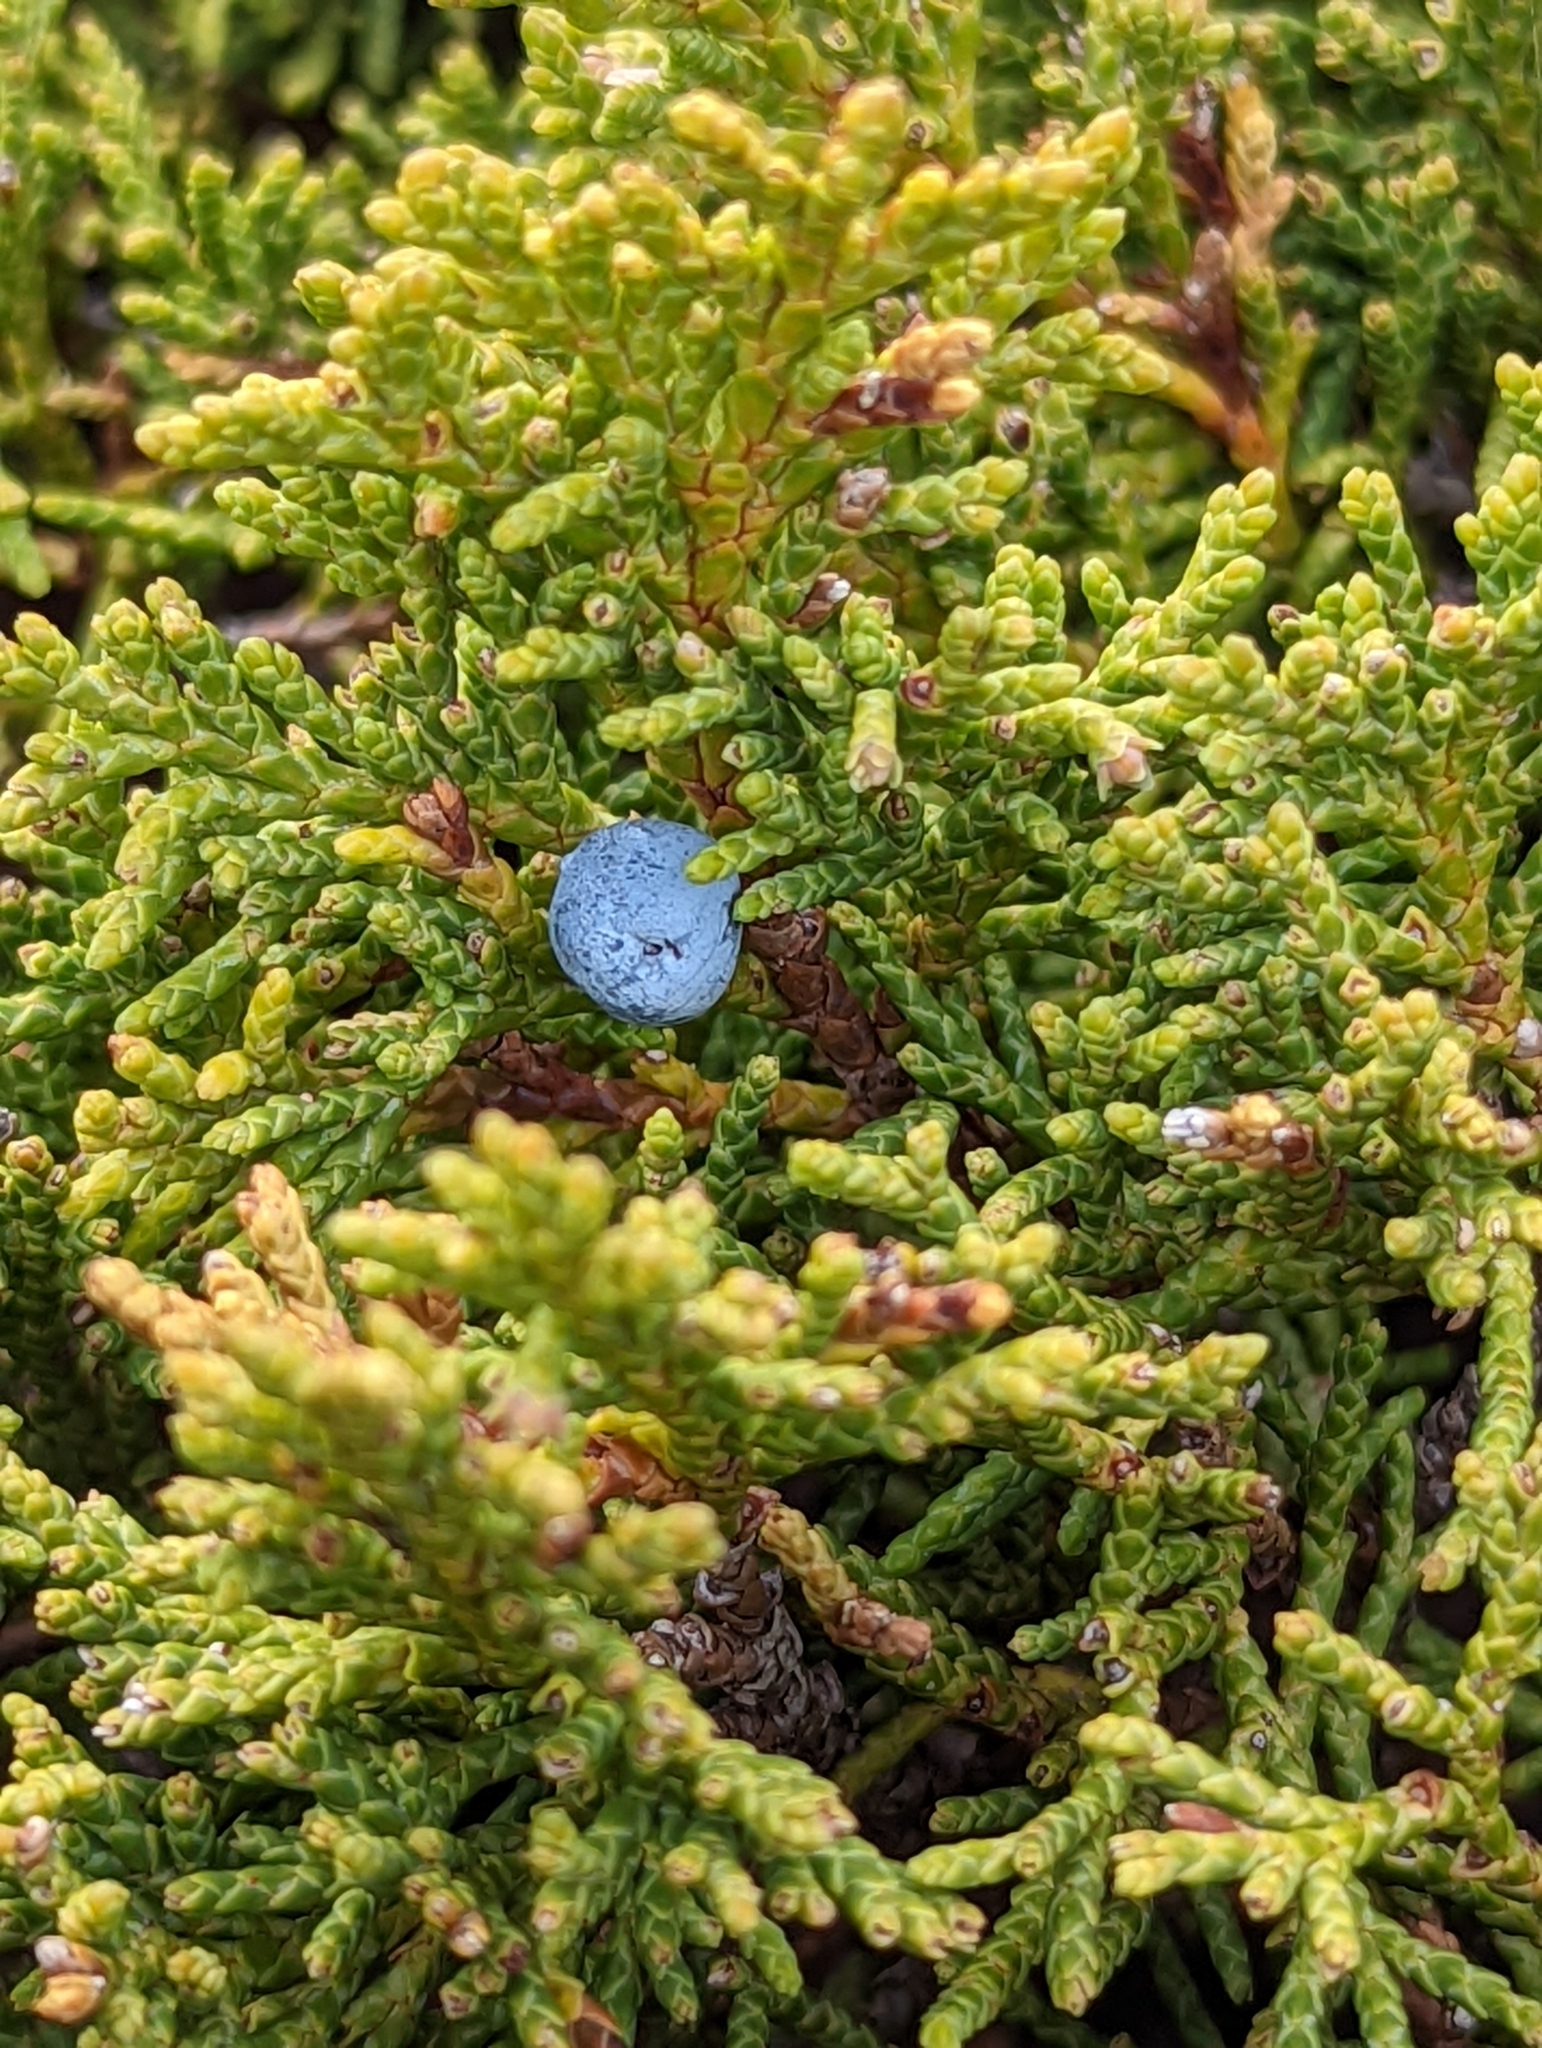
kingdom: Plantae
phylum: Tracheophyta
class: Pinopsida
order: Pinales
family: Cupressaceae
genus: Juniperus
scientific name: Juniperus scopulorum
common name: Rocky mountain juniper
